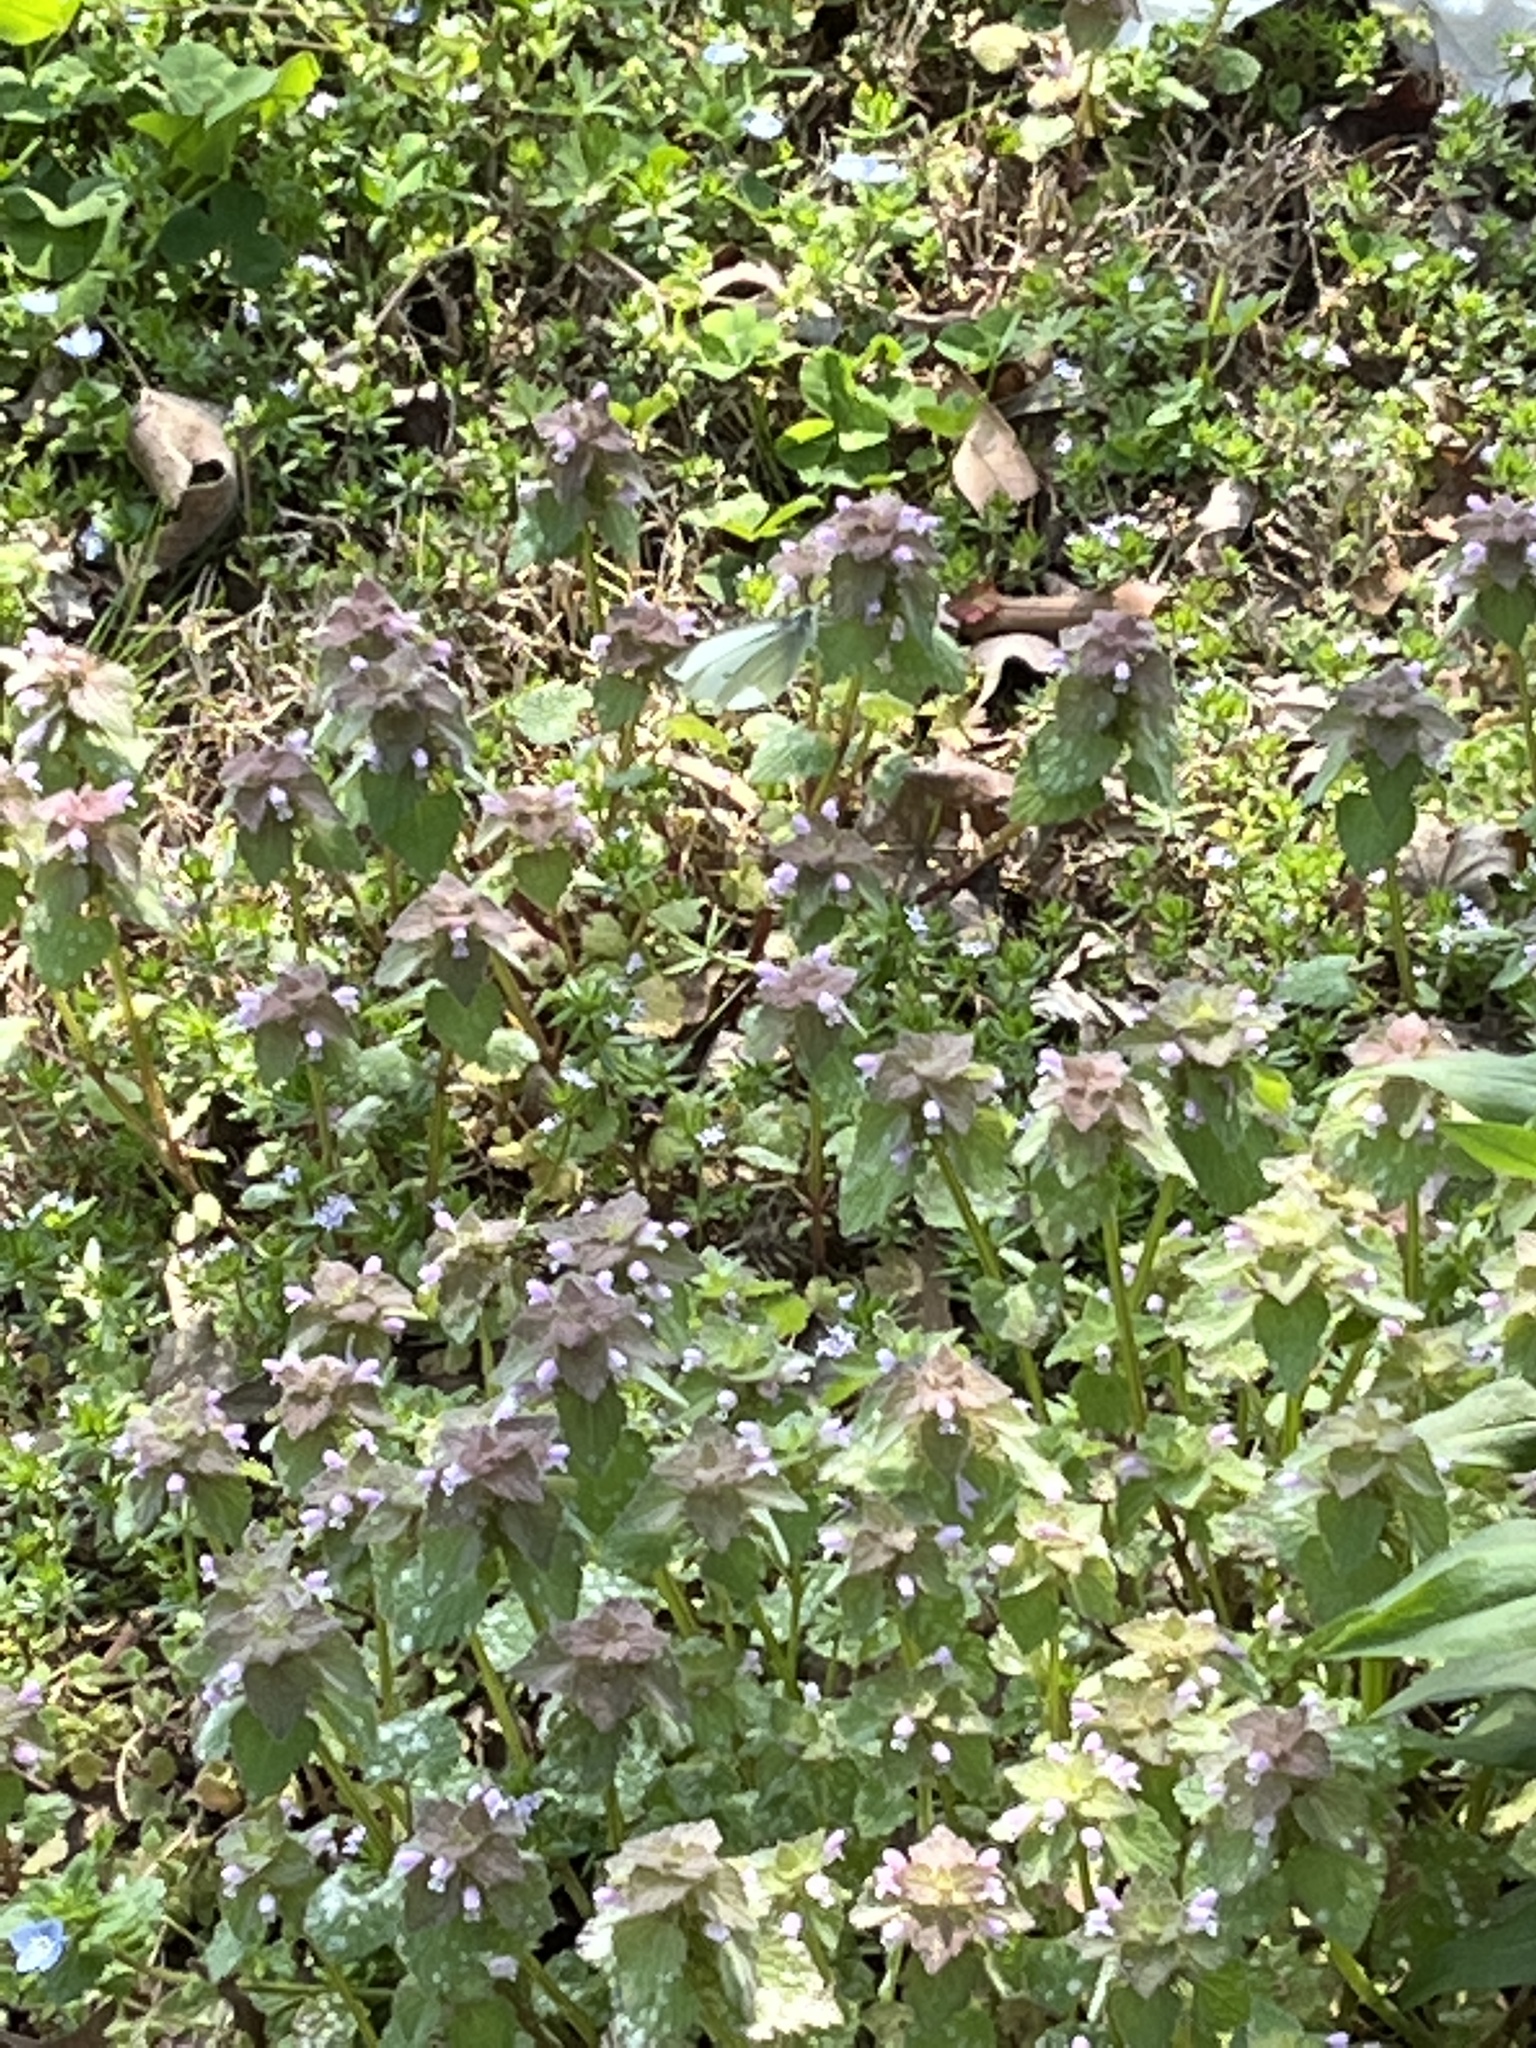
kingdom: Animalia
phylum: Arthropoda
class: Insecta
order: Lepidoptera
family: Pieridae
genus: Pieris
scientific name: Pieris rapae
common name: Small white
